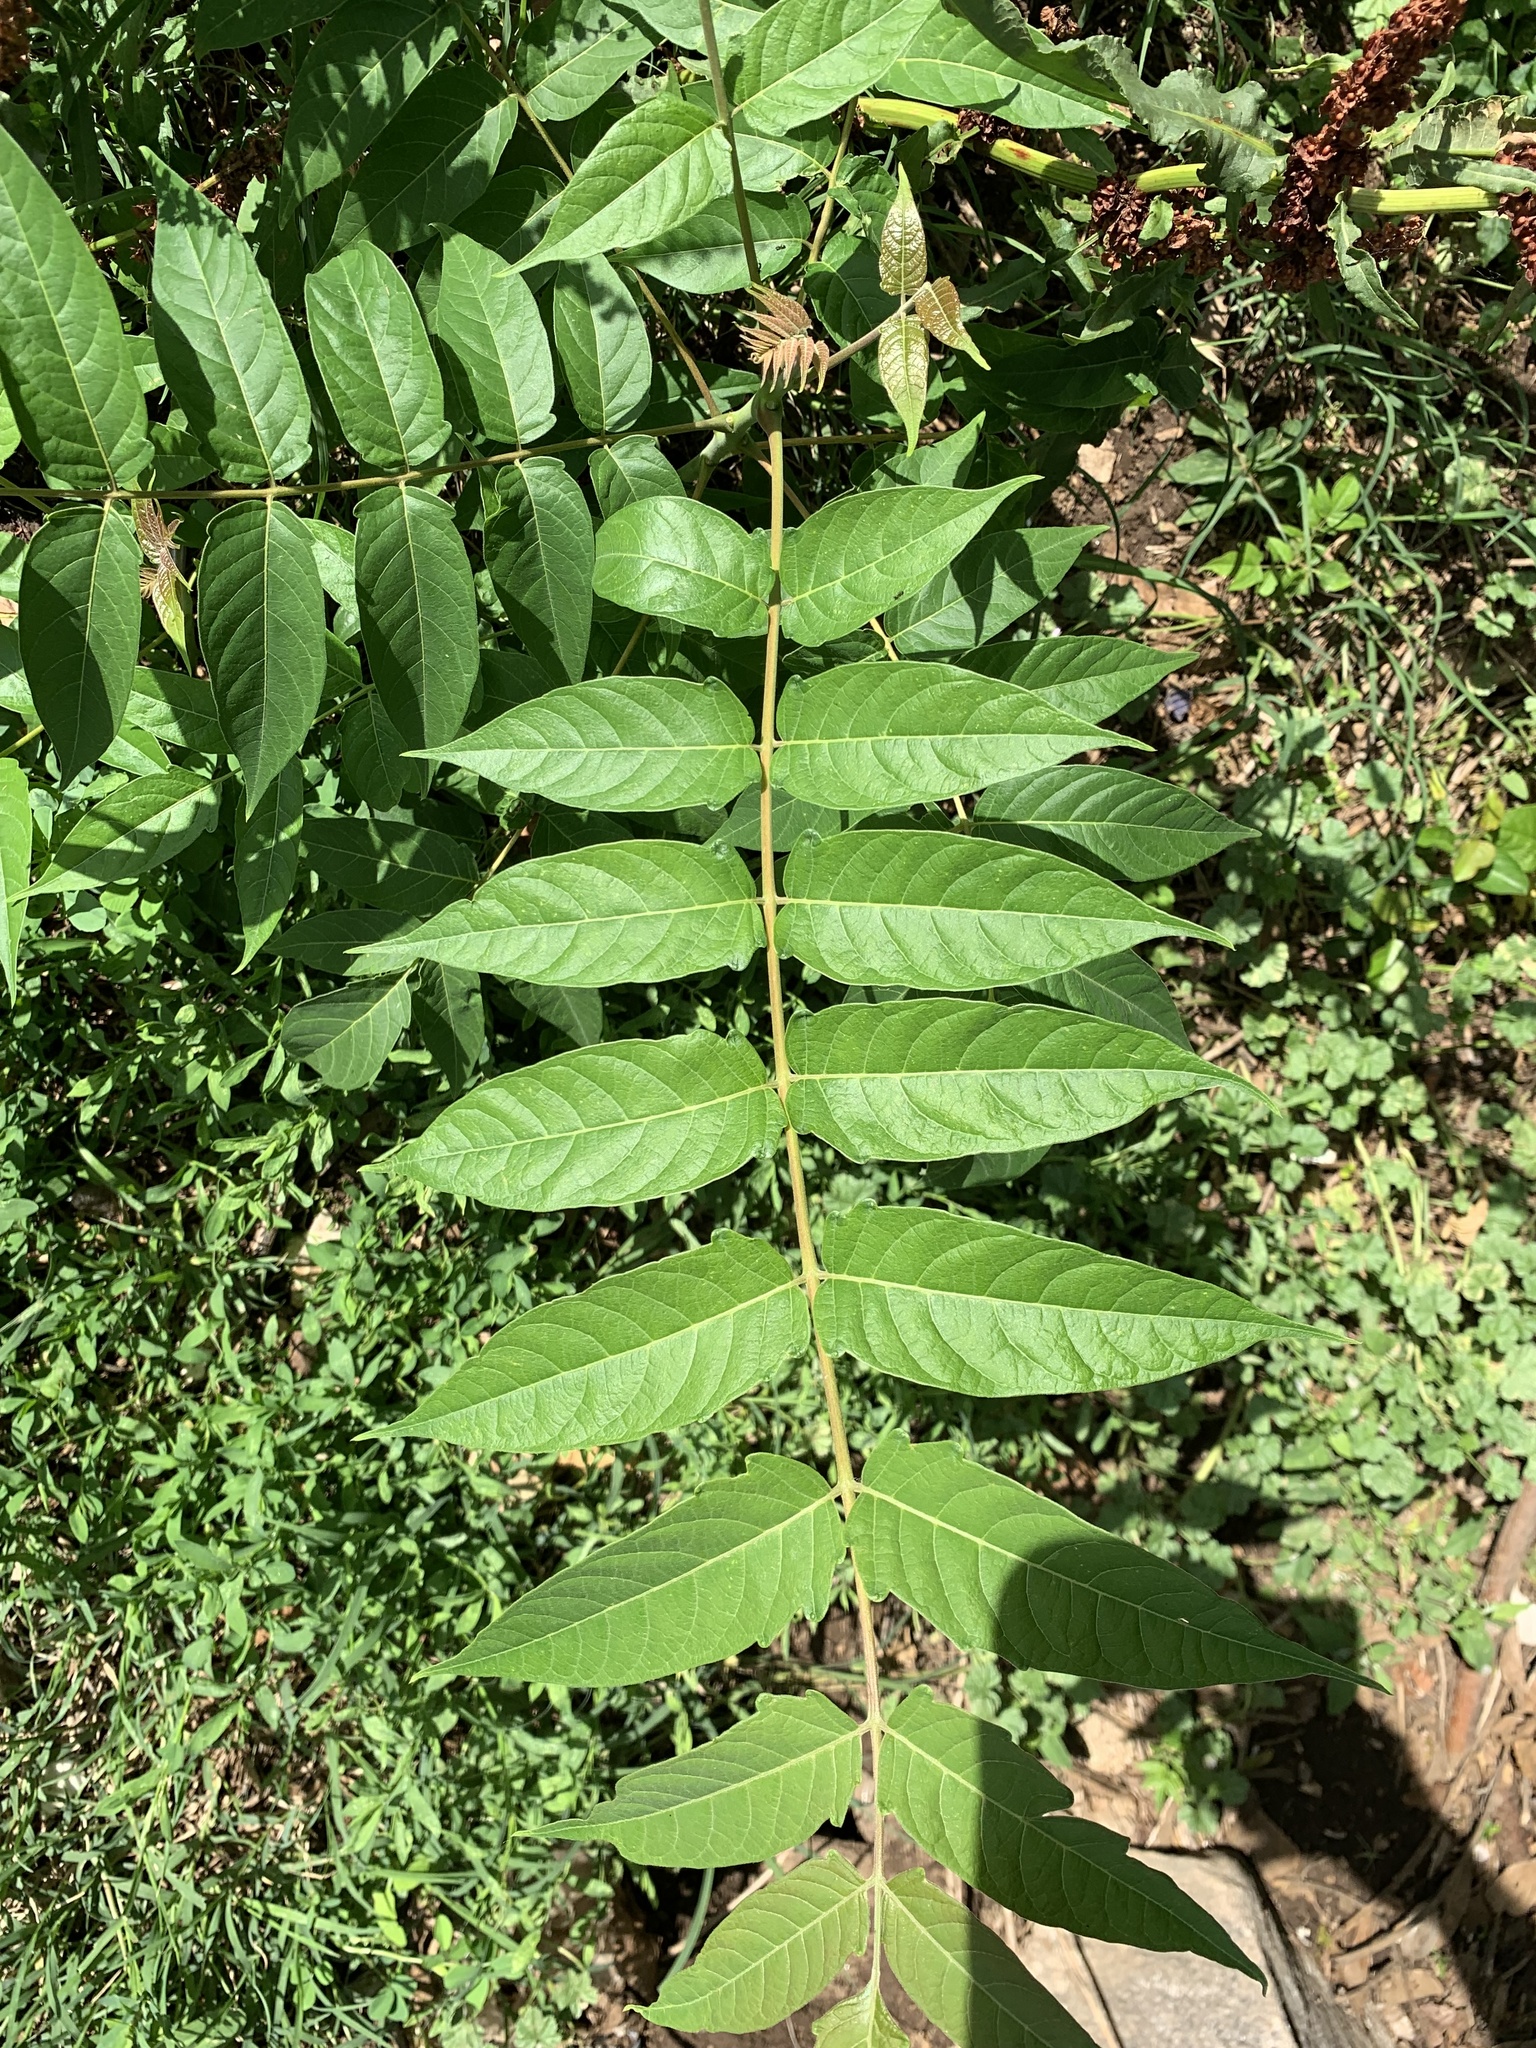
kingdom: Plantae
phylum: Tracheophyta
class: Magnoliopsida
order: Sapindales
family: Simaroubaceae
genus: Ailanthus
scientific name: Ailanthus altissima
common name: Tree-of-heaven
